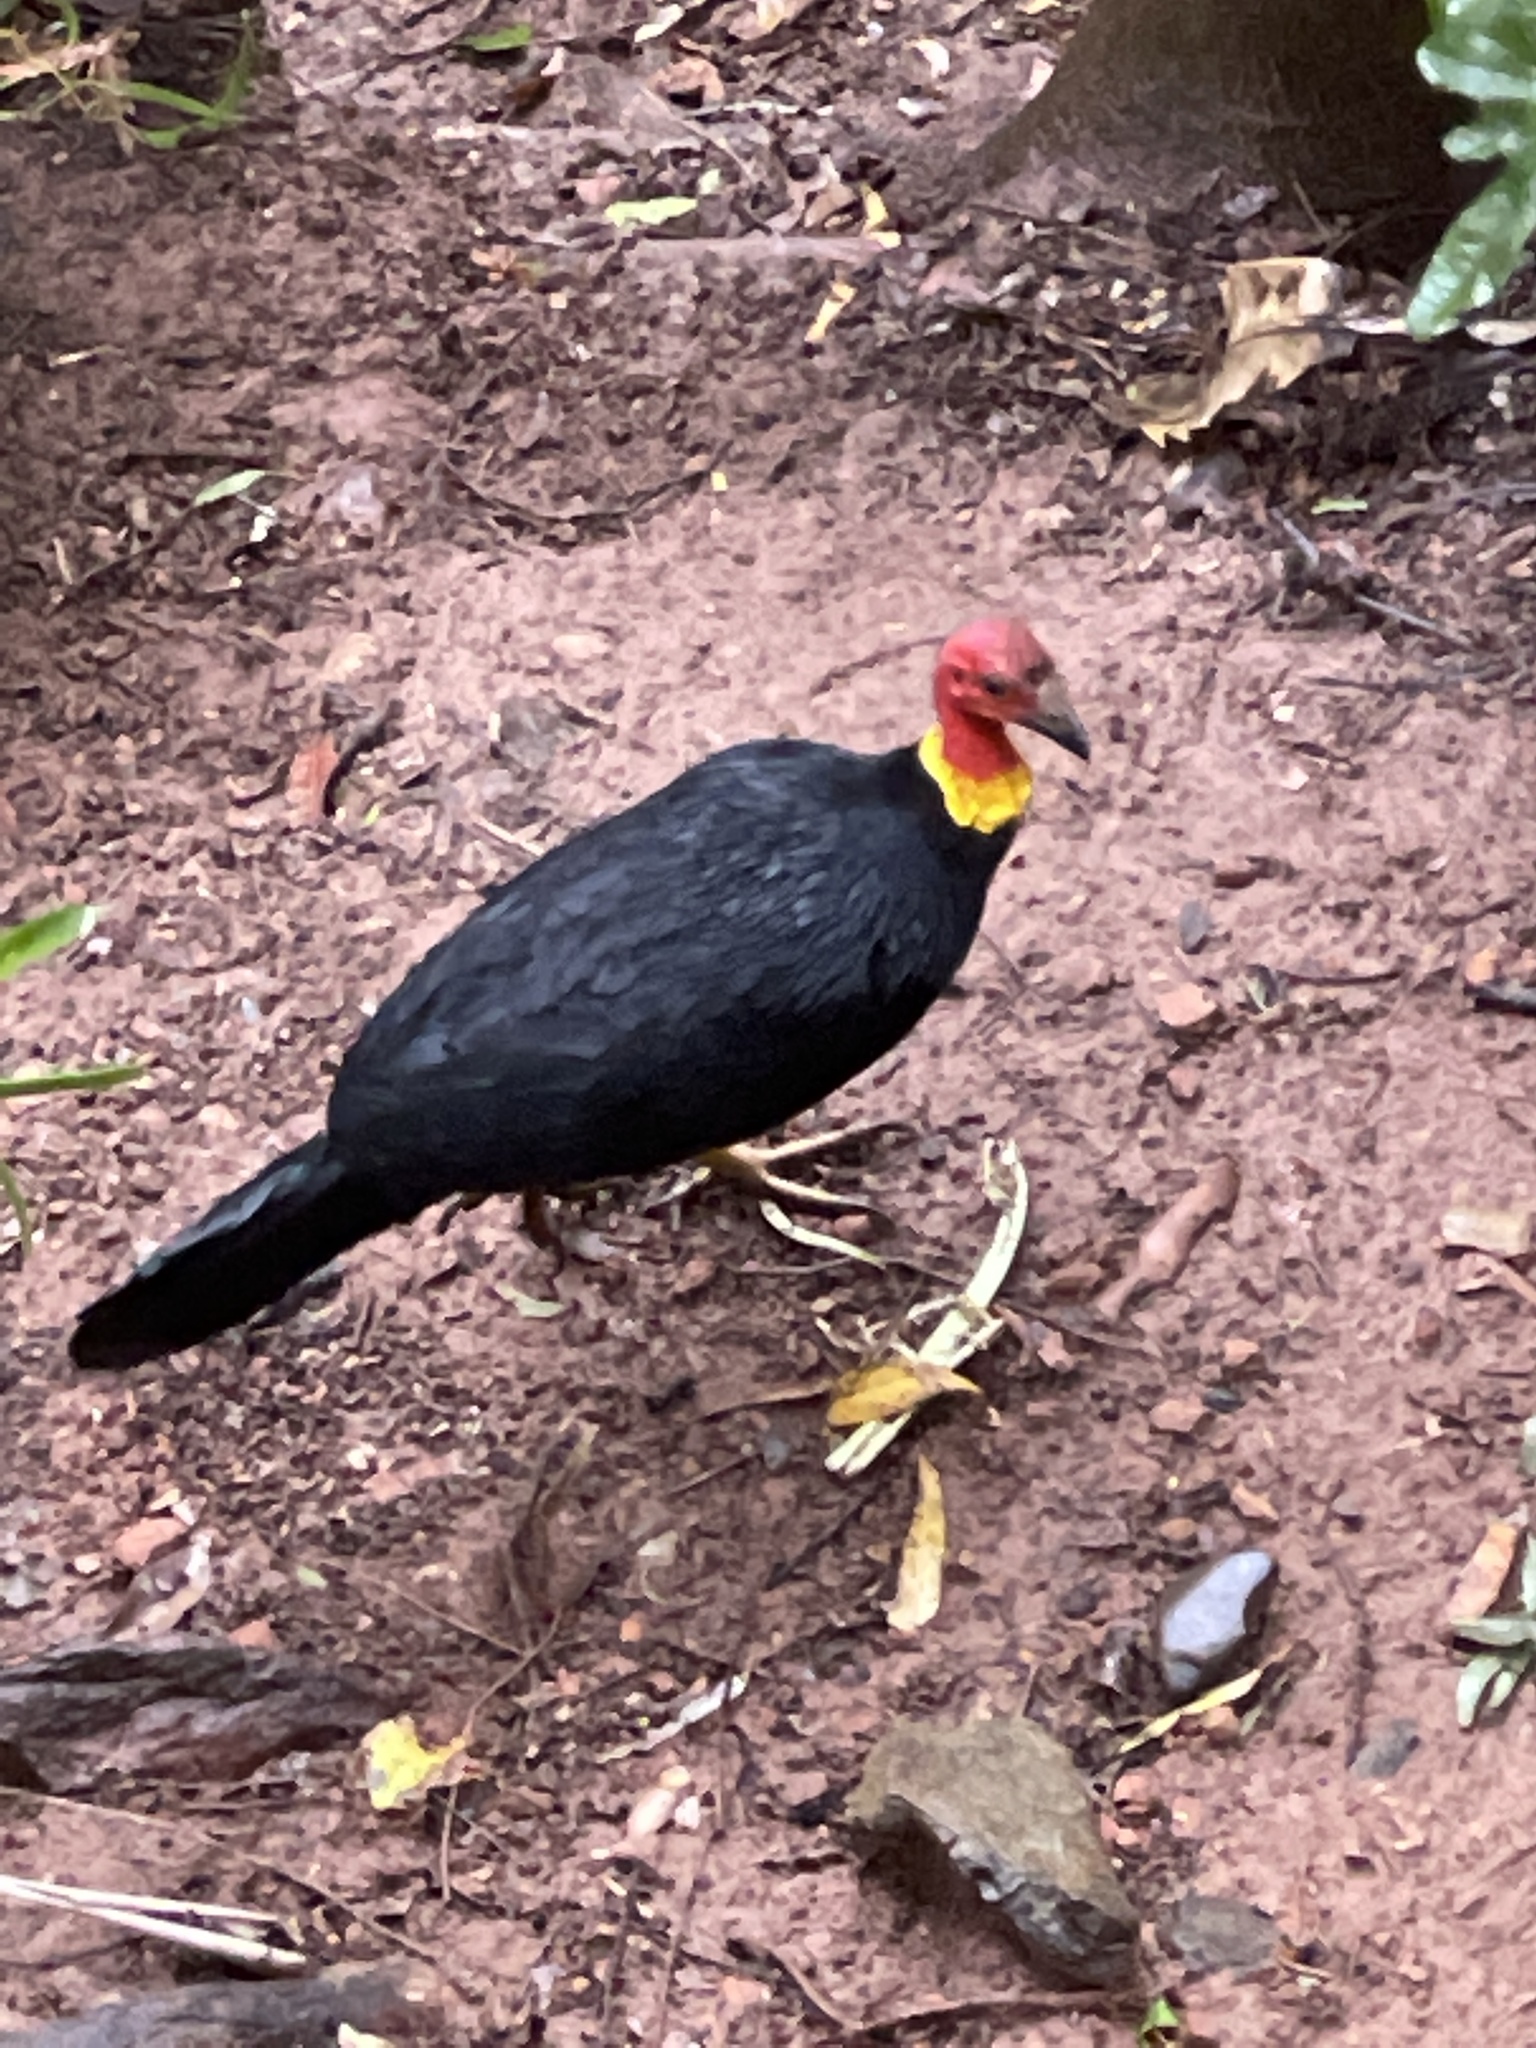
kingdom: Animalia
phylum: Chordata
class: Aves
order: Galliformes
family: Megapodiidae
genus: Alectura
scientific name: Alectura lathami
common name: Australian brushturkey
